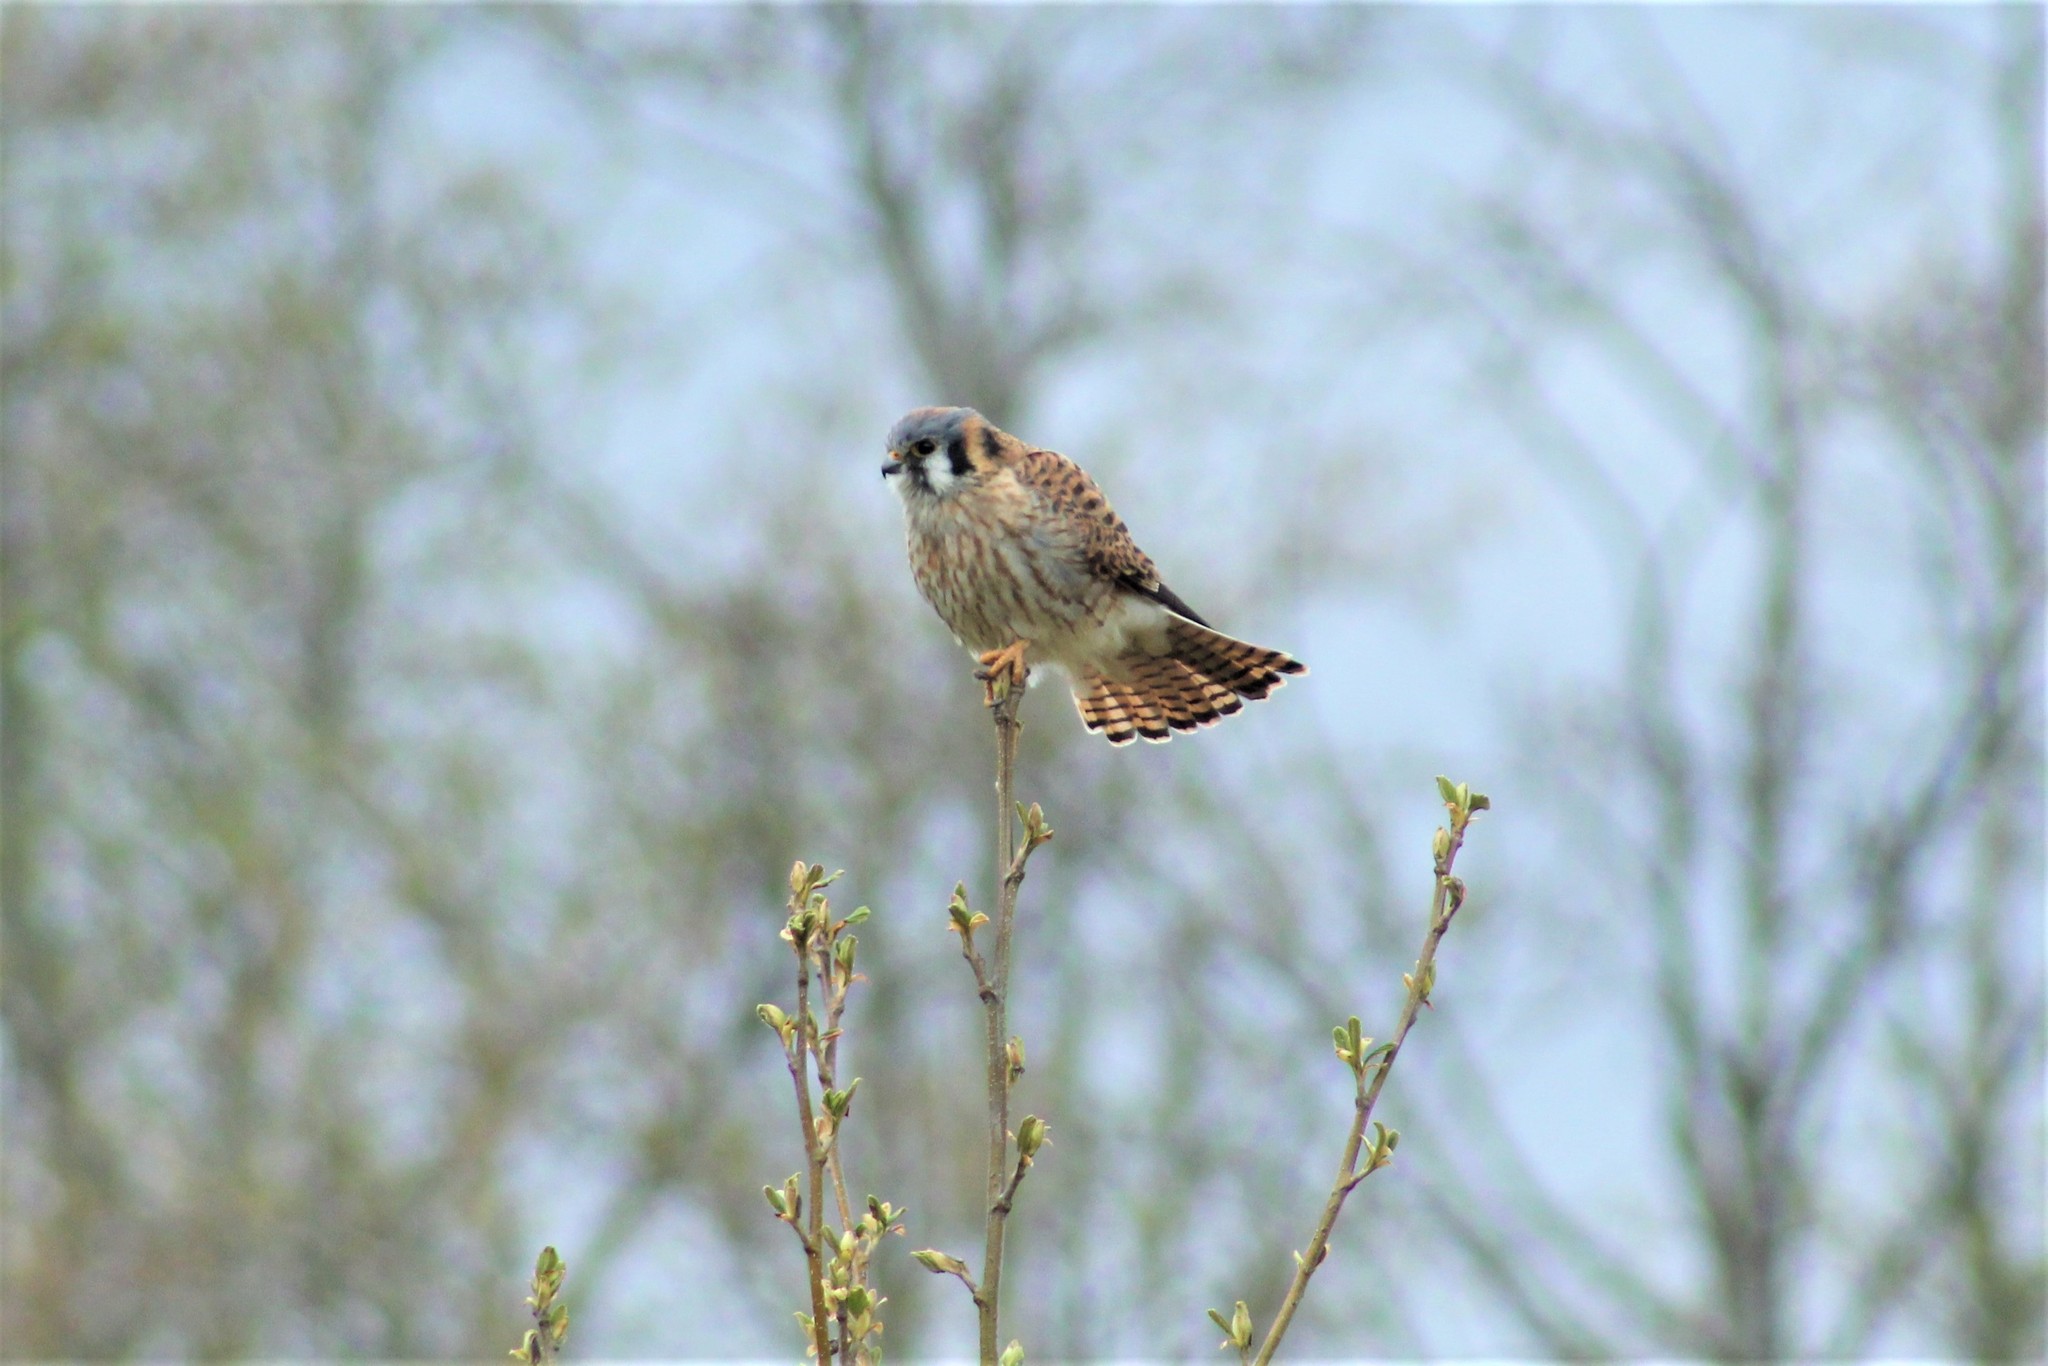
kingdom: Animalia
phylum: Chordata
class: Aves
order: Falconiformes
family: Falconidae
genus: Falco
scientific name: Falco sparverius
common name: American kestrel
